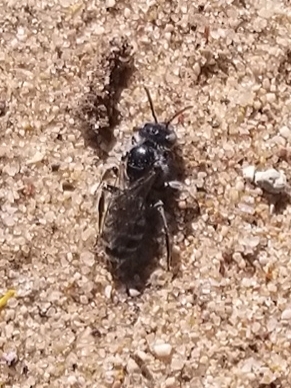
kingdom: Animalia
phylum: Arthropoda
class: Insecta
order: Hymenoptera
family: Melittidae
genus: Hesperapis
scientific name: Hesperapis
